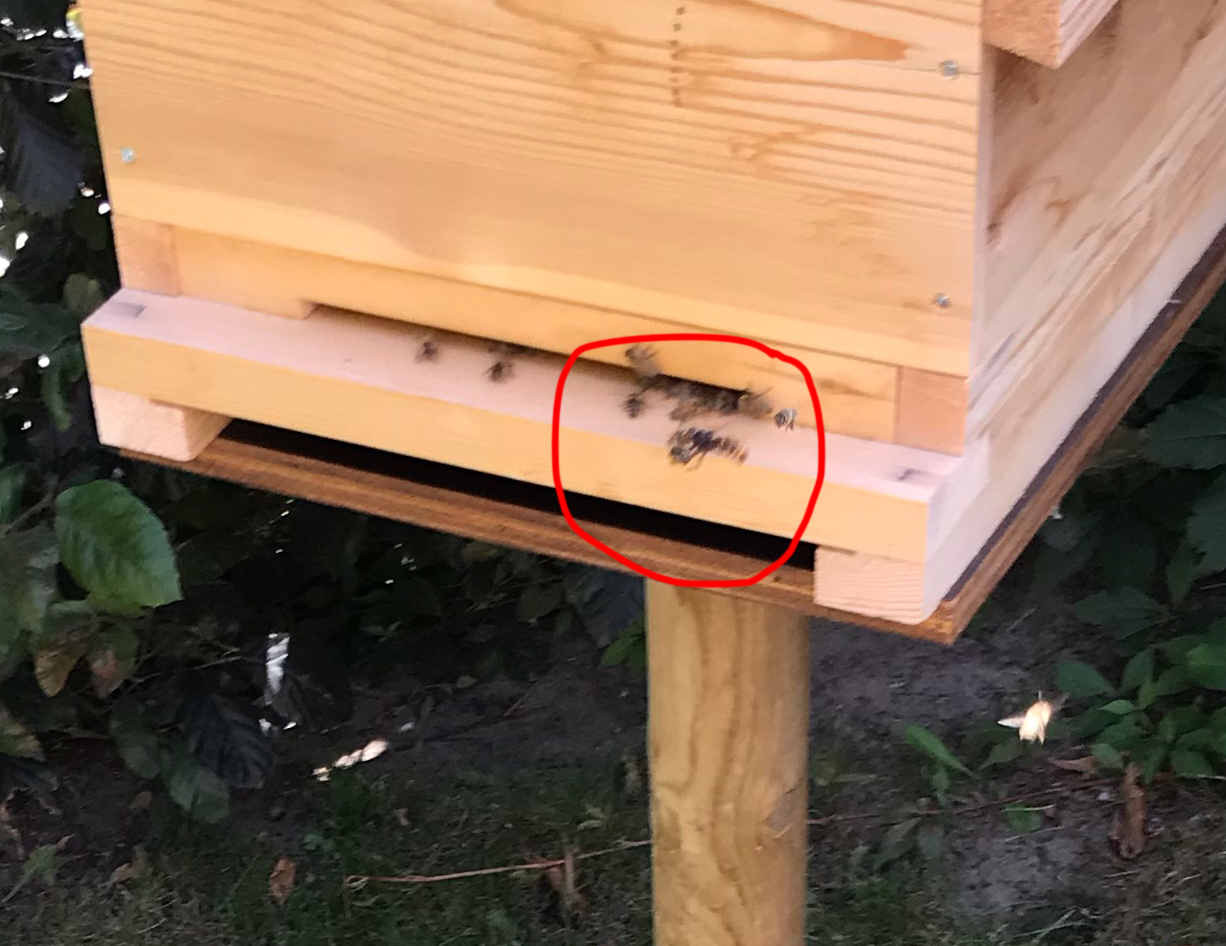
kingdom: Animalia
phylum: Arthropoda
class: Insecta
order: Hymenoptera
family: Vespidae
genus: Vespa
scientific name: Vespa velutina
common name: Asian hornet
